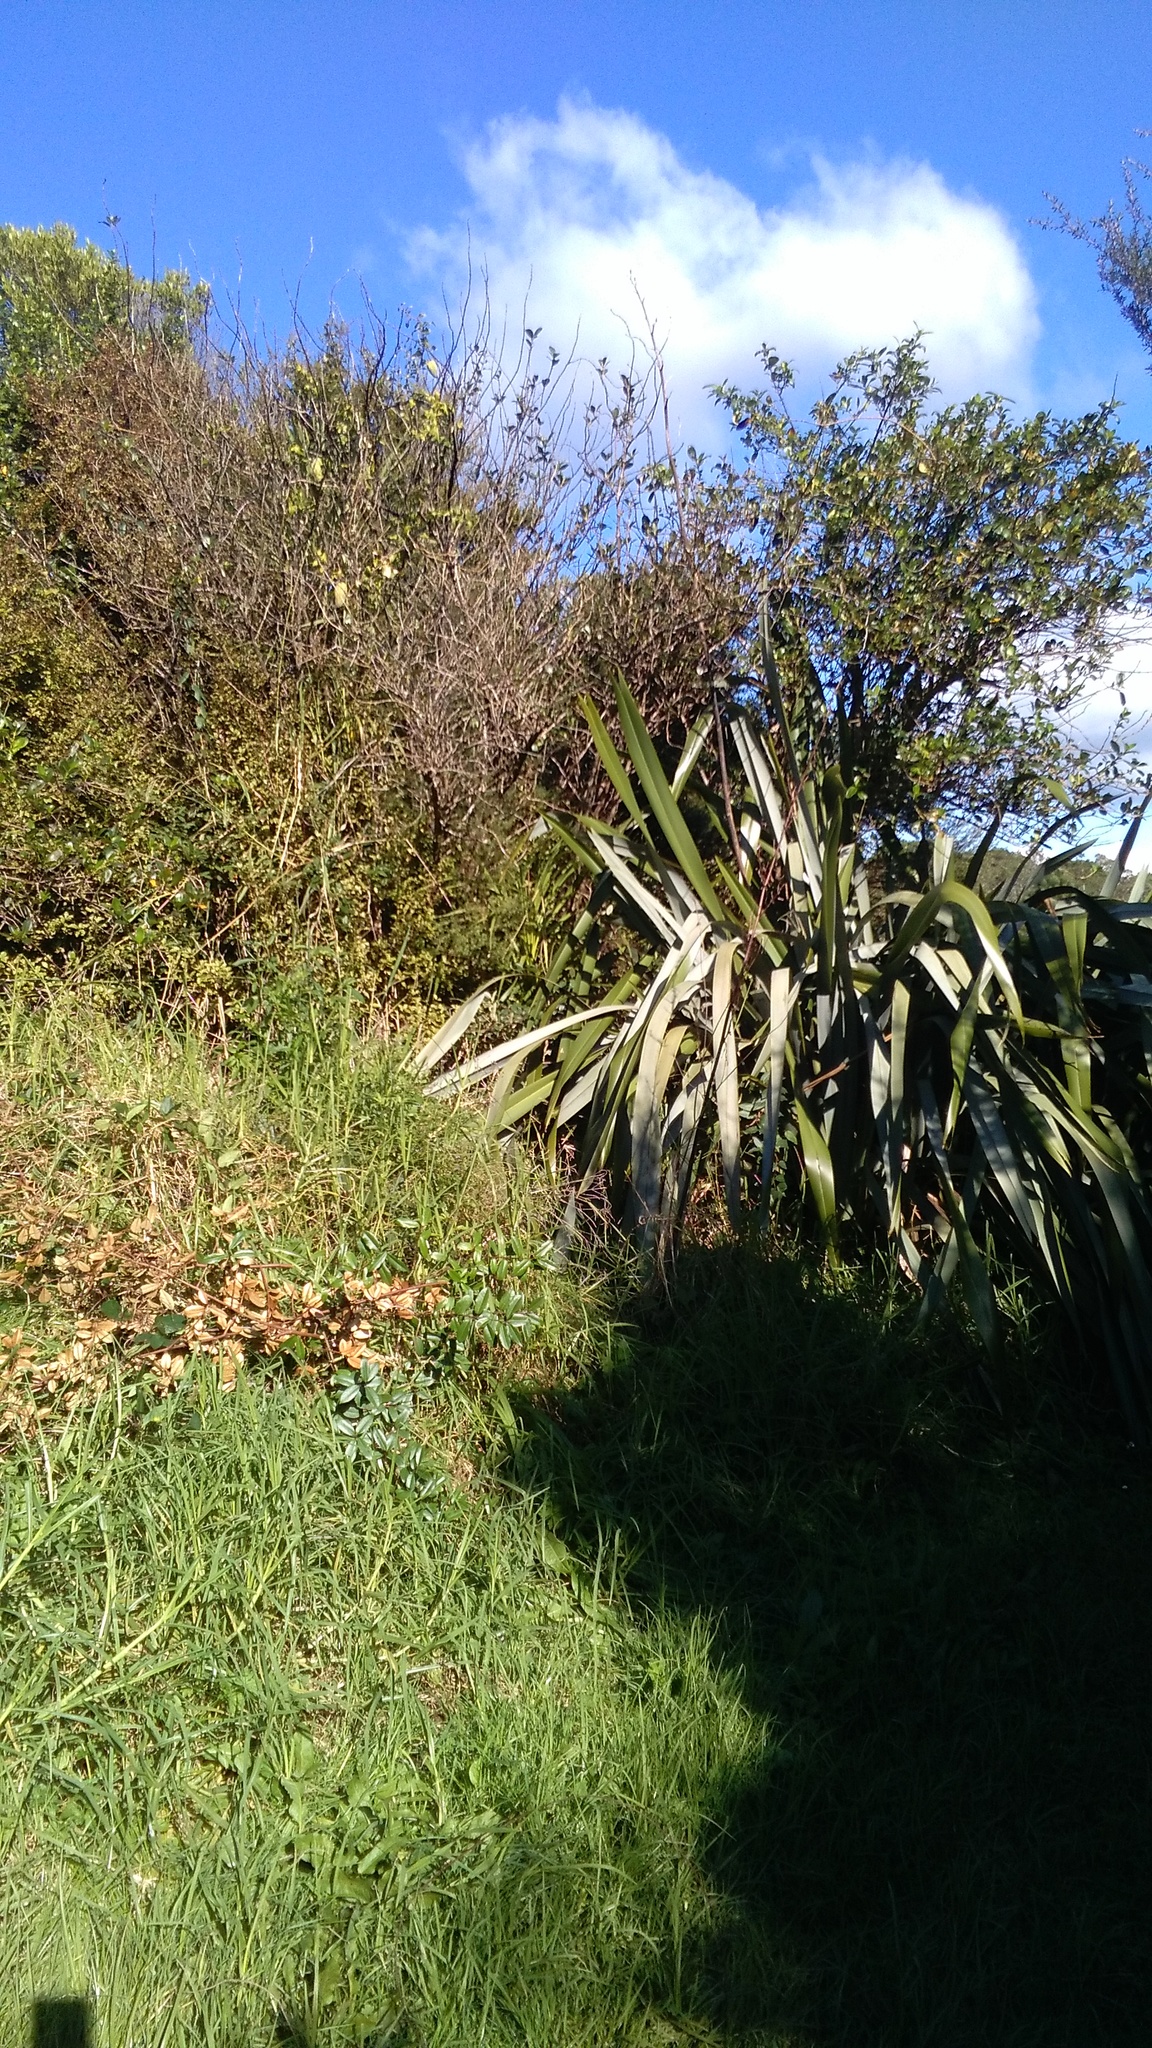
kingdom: Plantae
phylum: Tracheophyta
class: Liliopsida
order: Poales
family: Poaceae
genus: Cenchrus
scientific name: Cenchrus clandestinus
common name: Kikuyugrass
